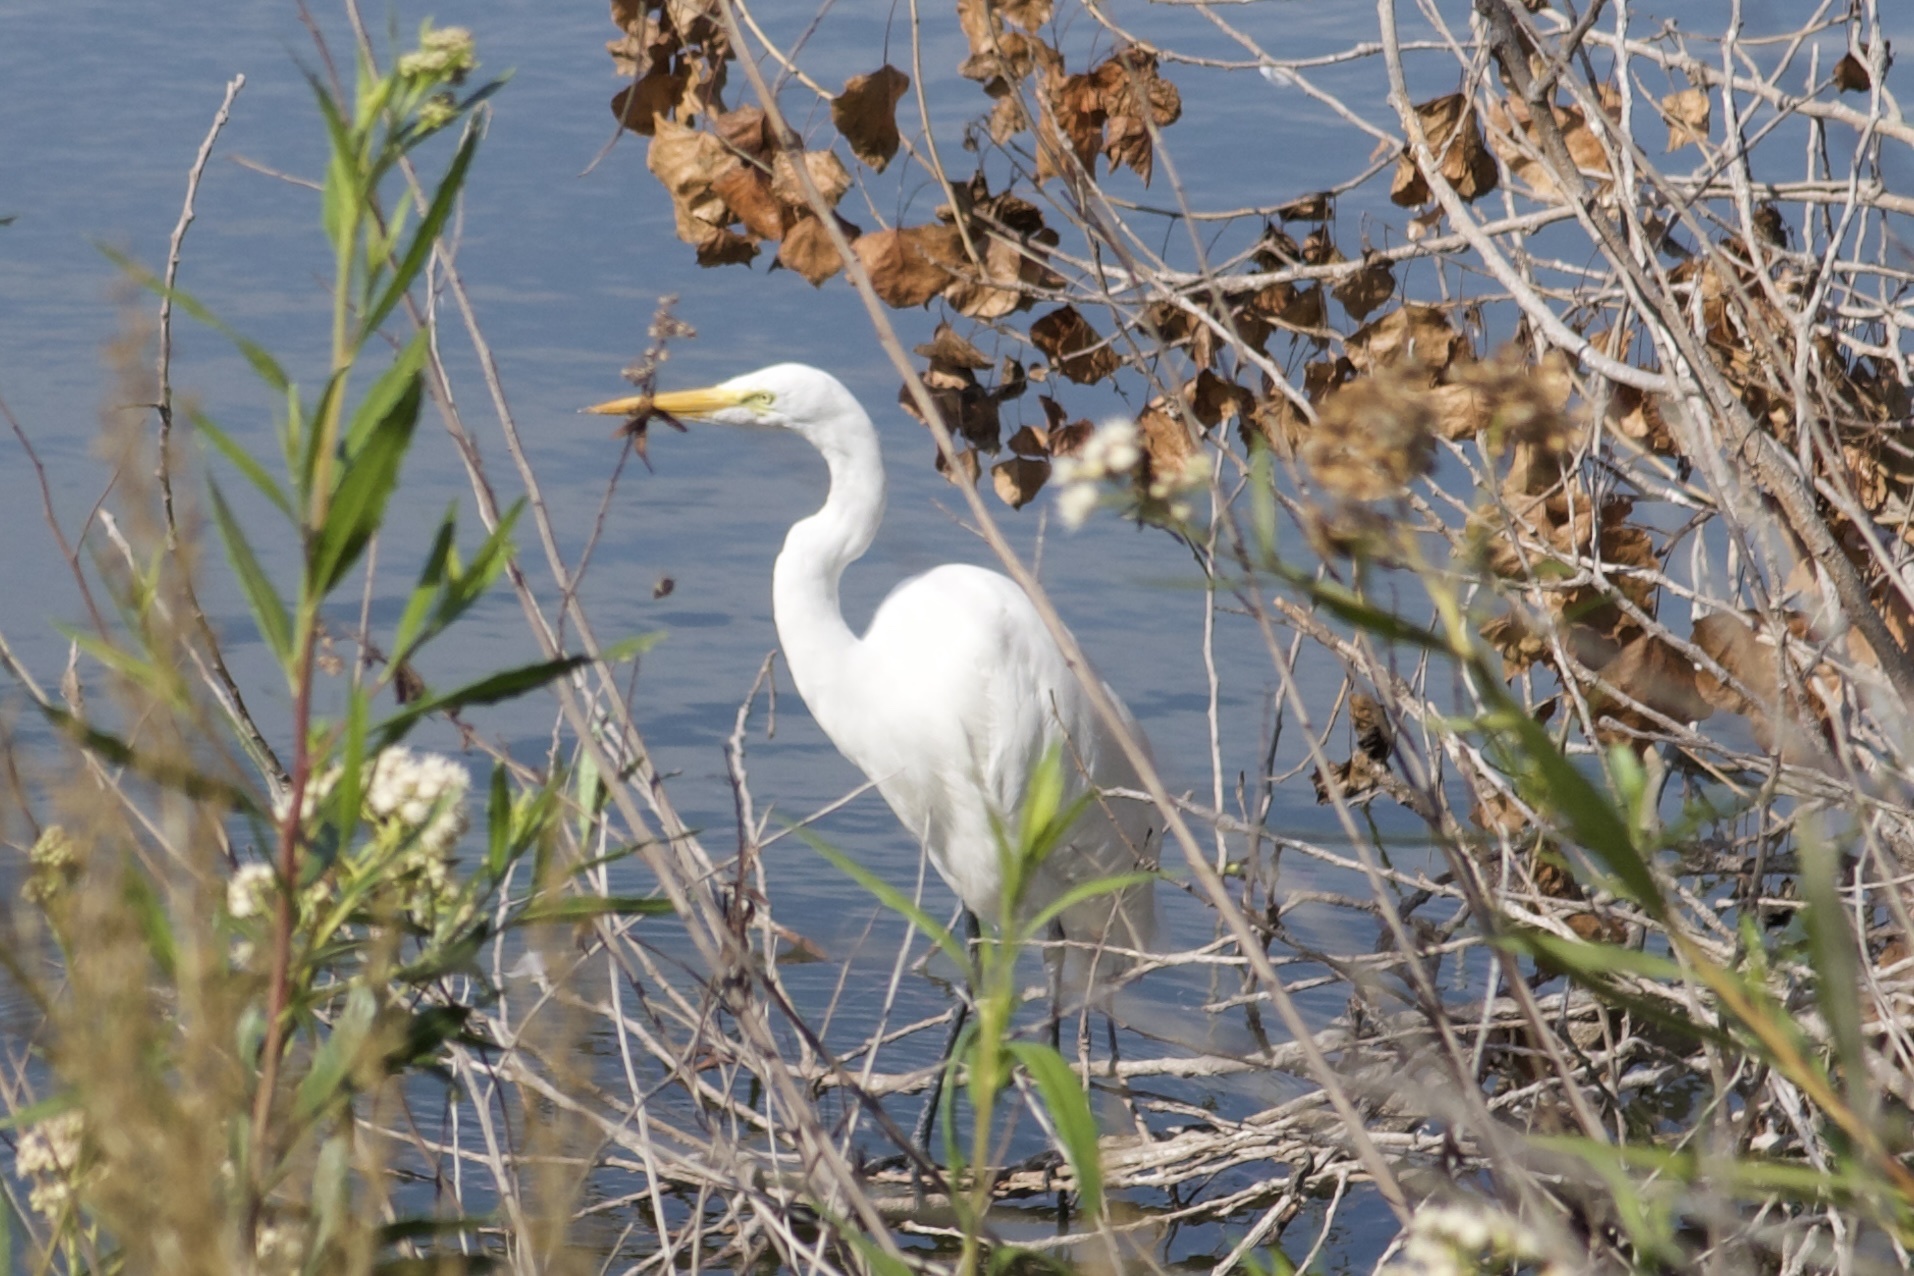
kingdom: Animalia
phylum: Chordata
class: Aves
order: Pelecaniformes
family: Ardeidae
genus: Ardea
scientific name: Ardea alba
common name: Great egret
